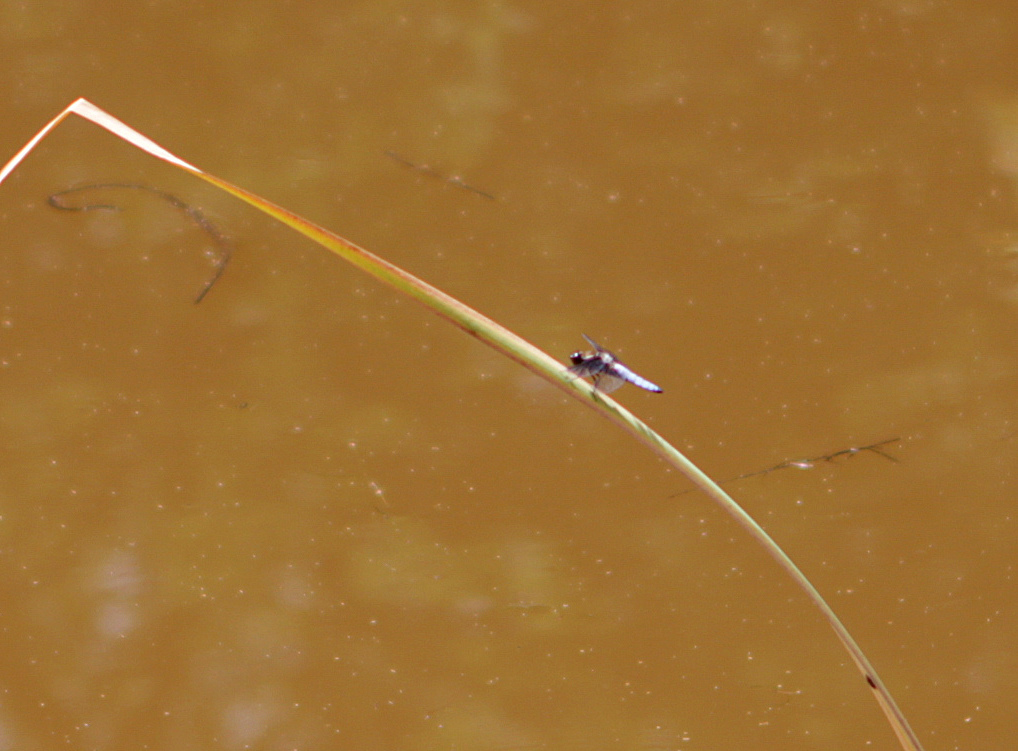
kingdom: Animalia
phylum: Arthropoda
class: Insecta
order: Odonata
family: Libellulidae
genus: Libellula
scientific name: Libellula depressa
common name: Broad-bodied chaser
